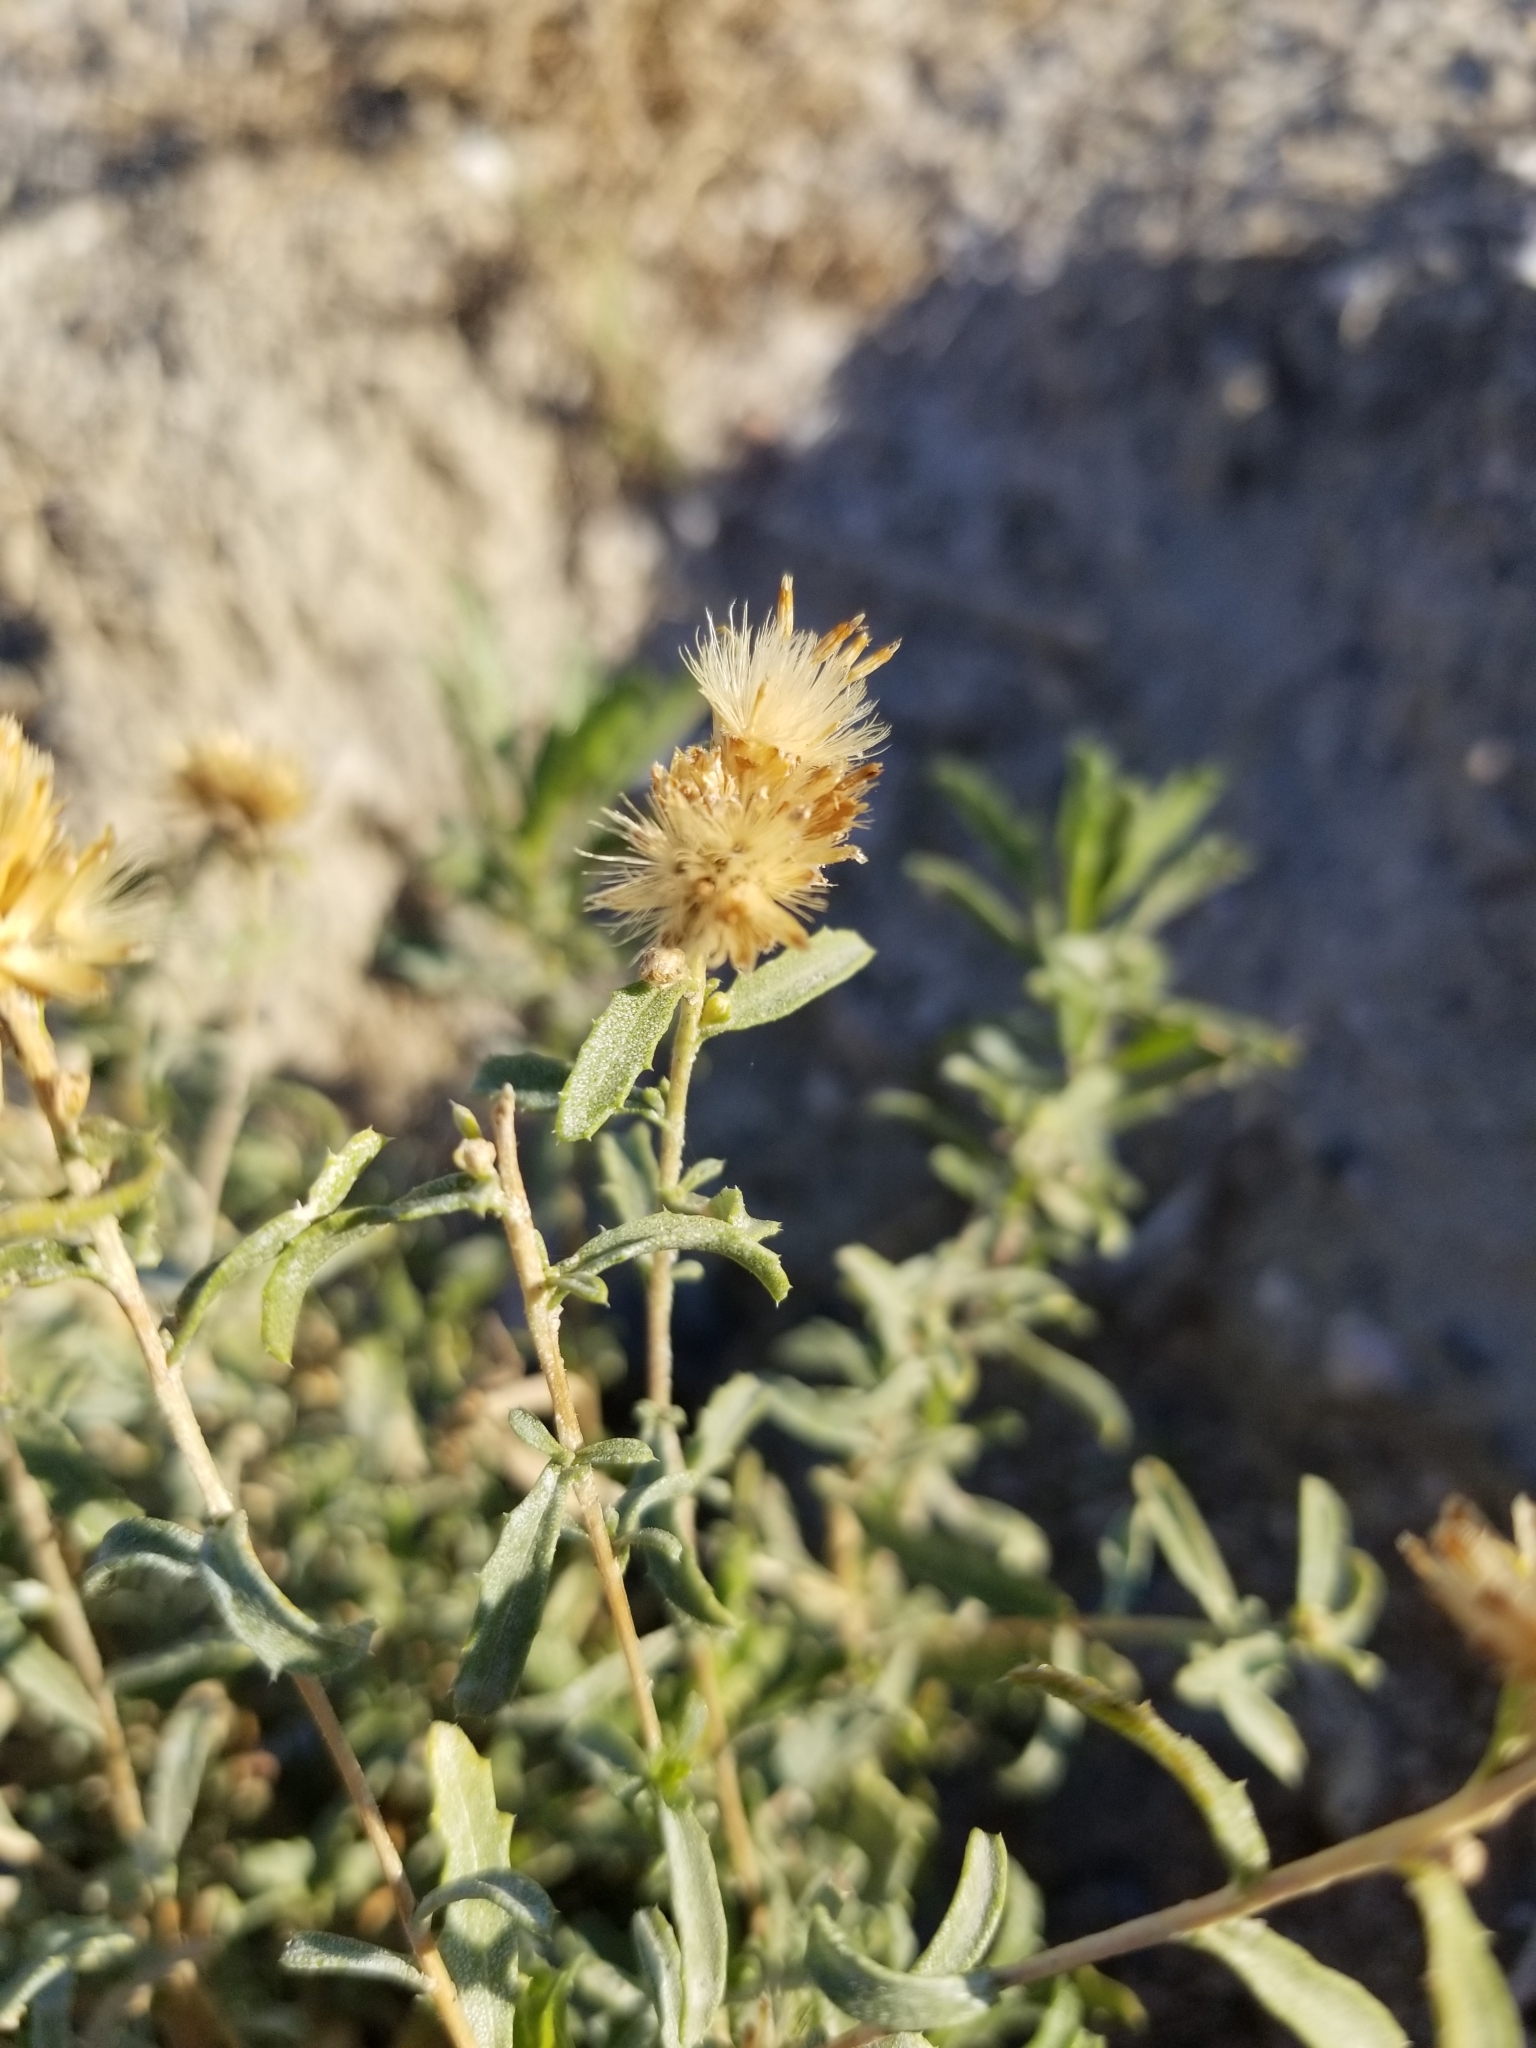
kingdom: Plantae
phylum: Tracheophyta
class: Magnoliopsida
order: Asterales
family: Asteraceae
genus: Isocoma
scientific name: Isocoma acradenia
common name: Alkali jimmyweed
